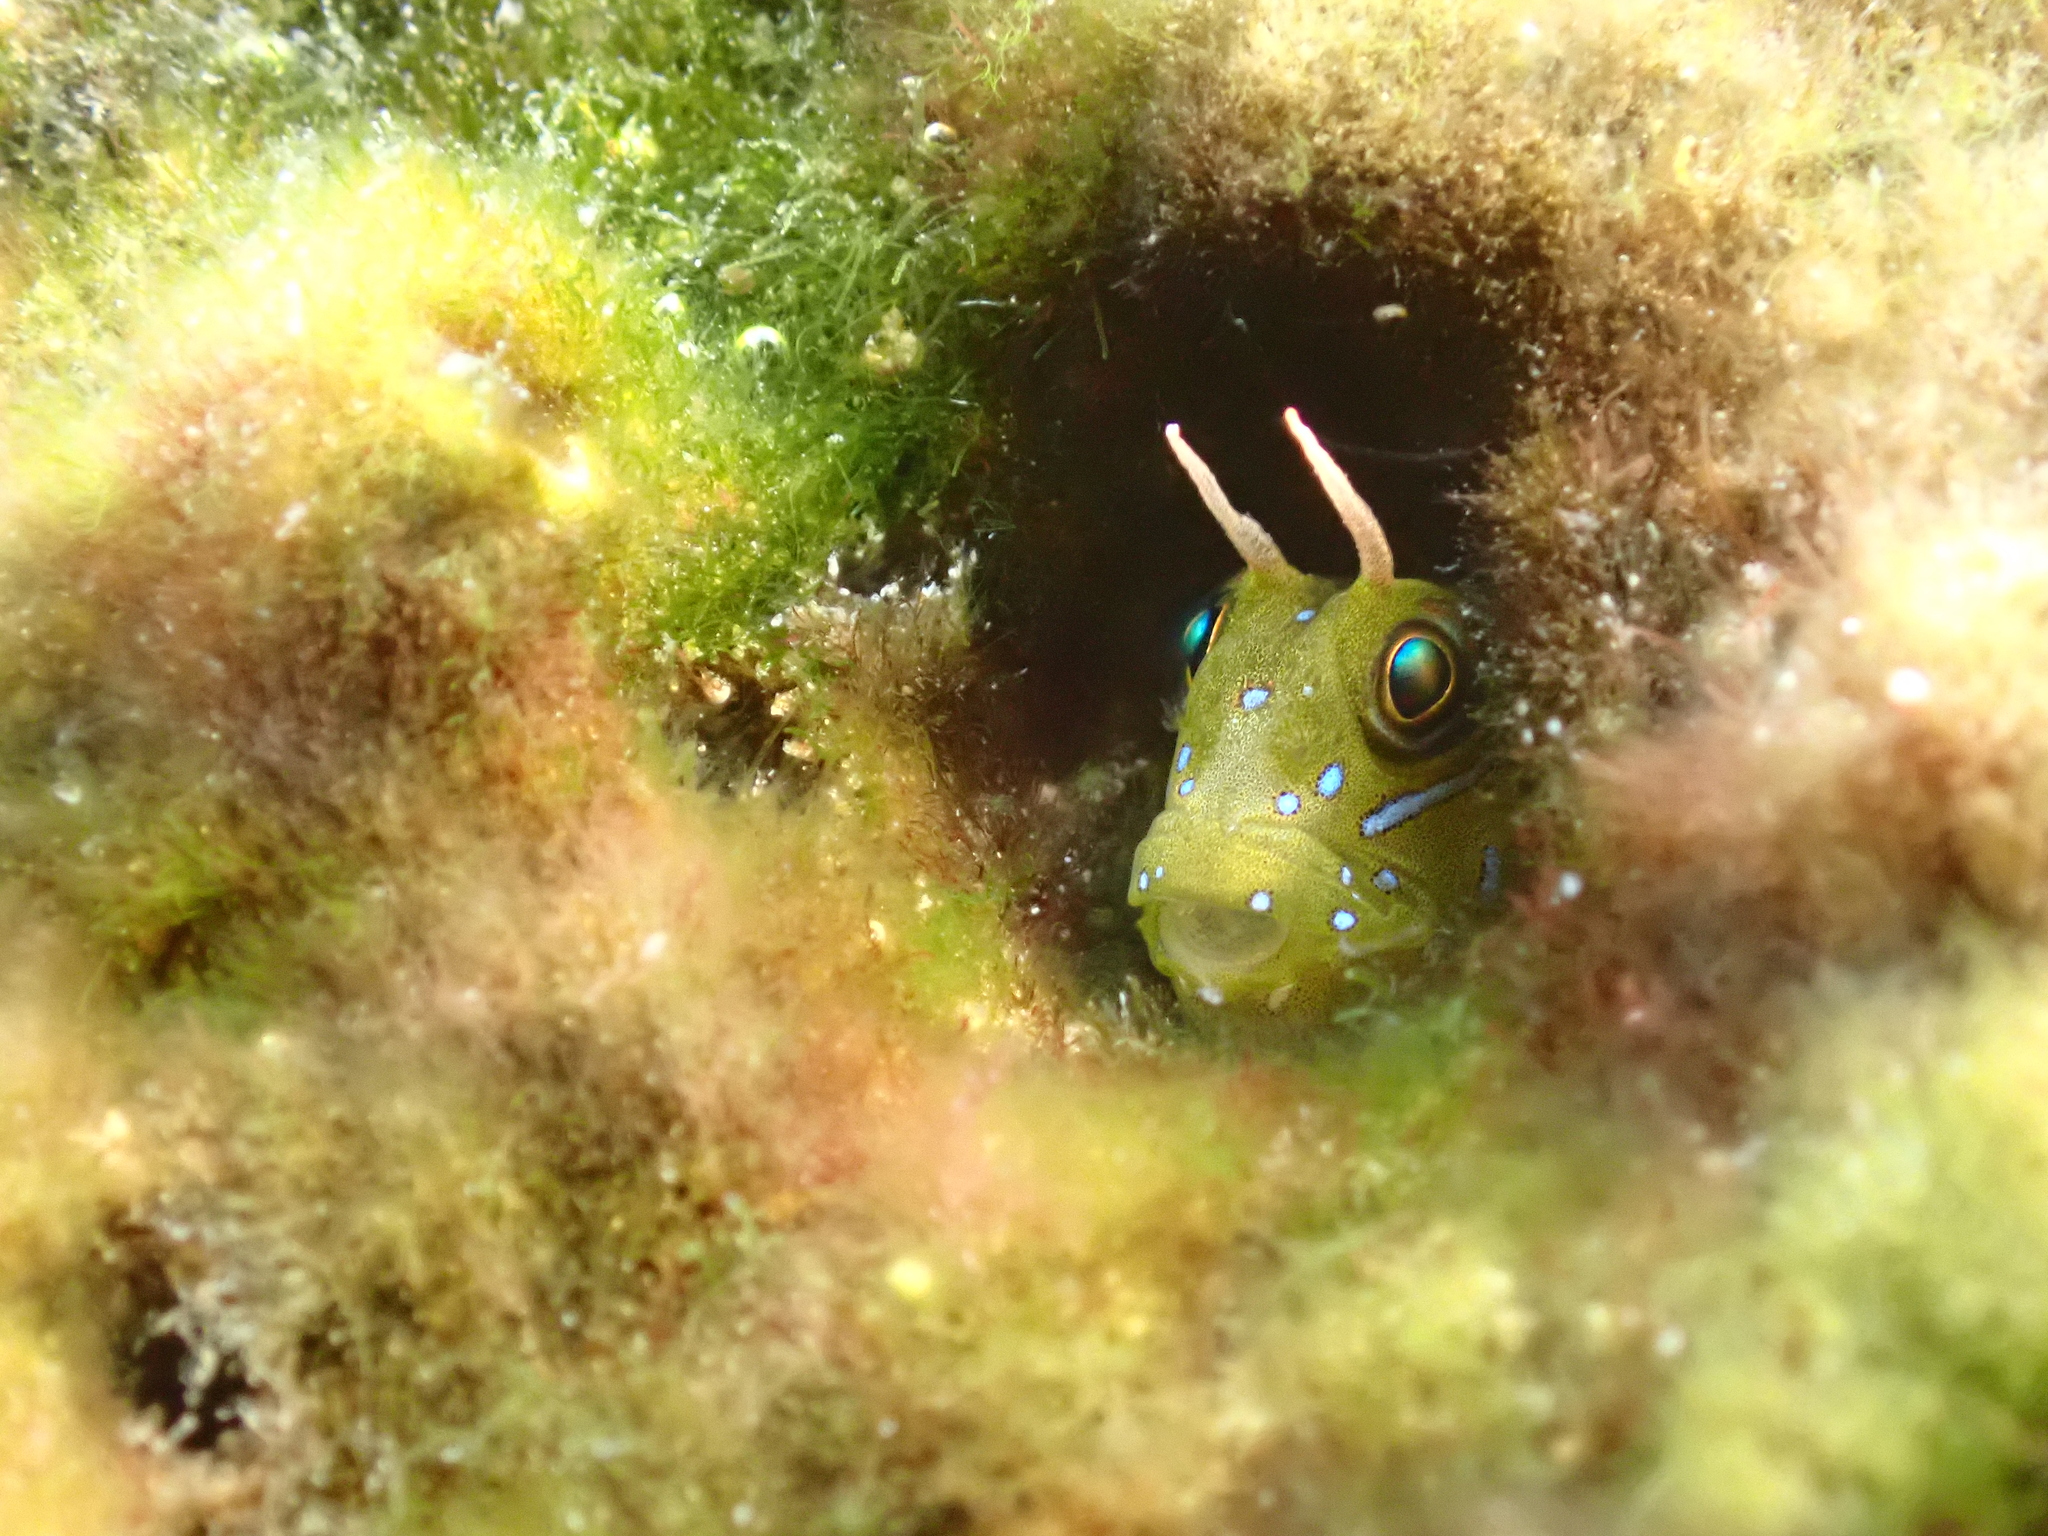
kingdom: Animalia
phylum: Chordata
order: Perciformes
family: Blenniidae
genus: Aidablennius
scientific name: Aidablennius sphynx
